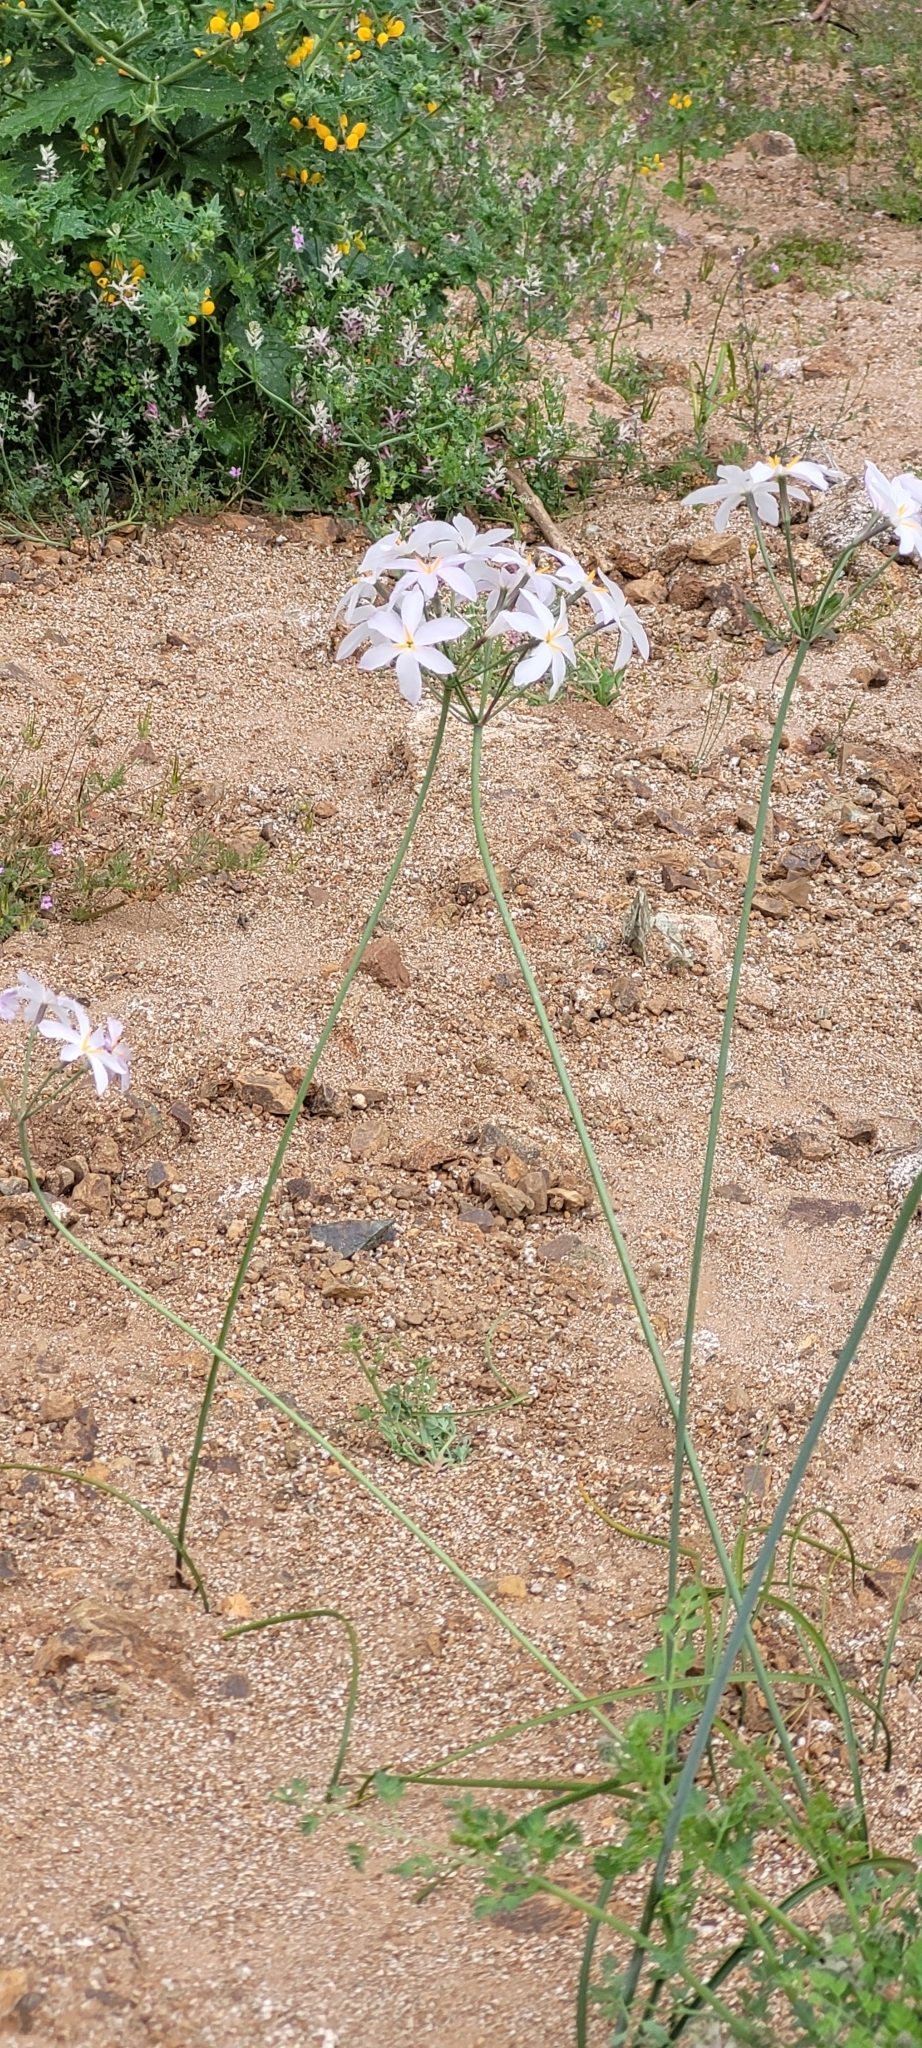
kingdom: Plantae
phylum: Tracheophyta
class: Liliopsida
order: Asparagales
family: Amaryllidaceae
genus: Leucocoryne
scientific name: Leucocoryne ixioides
